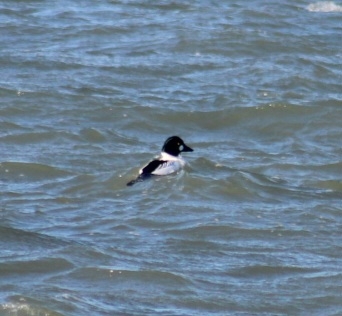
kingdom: Animalia
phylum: Chordata
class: Aves
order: Anseriformes
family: Anatidae
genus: Bucephala
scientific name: Bucephala clangula
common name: Common goldeneye
